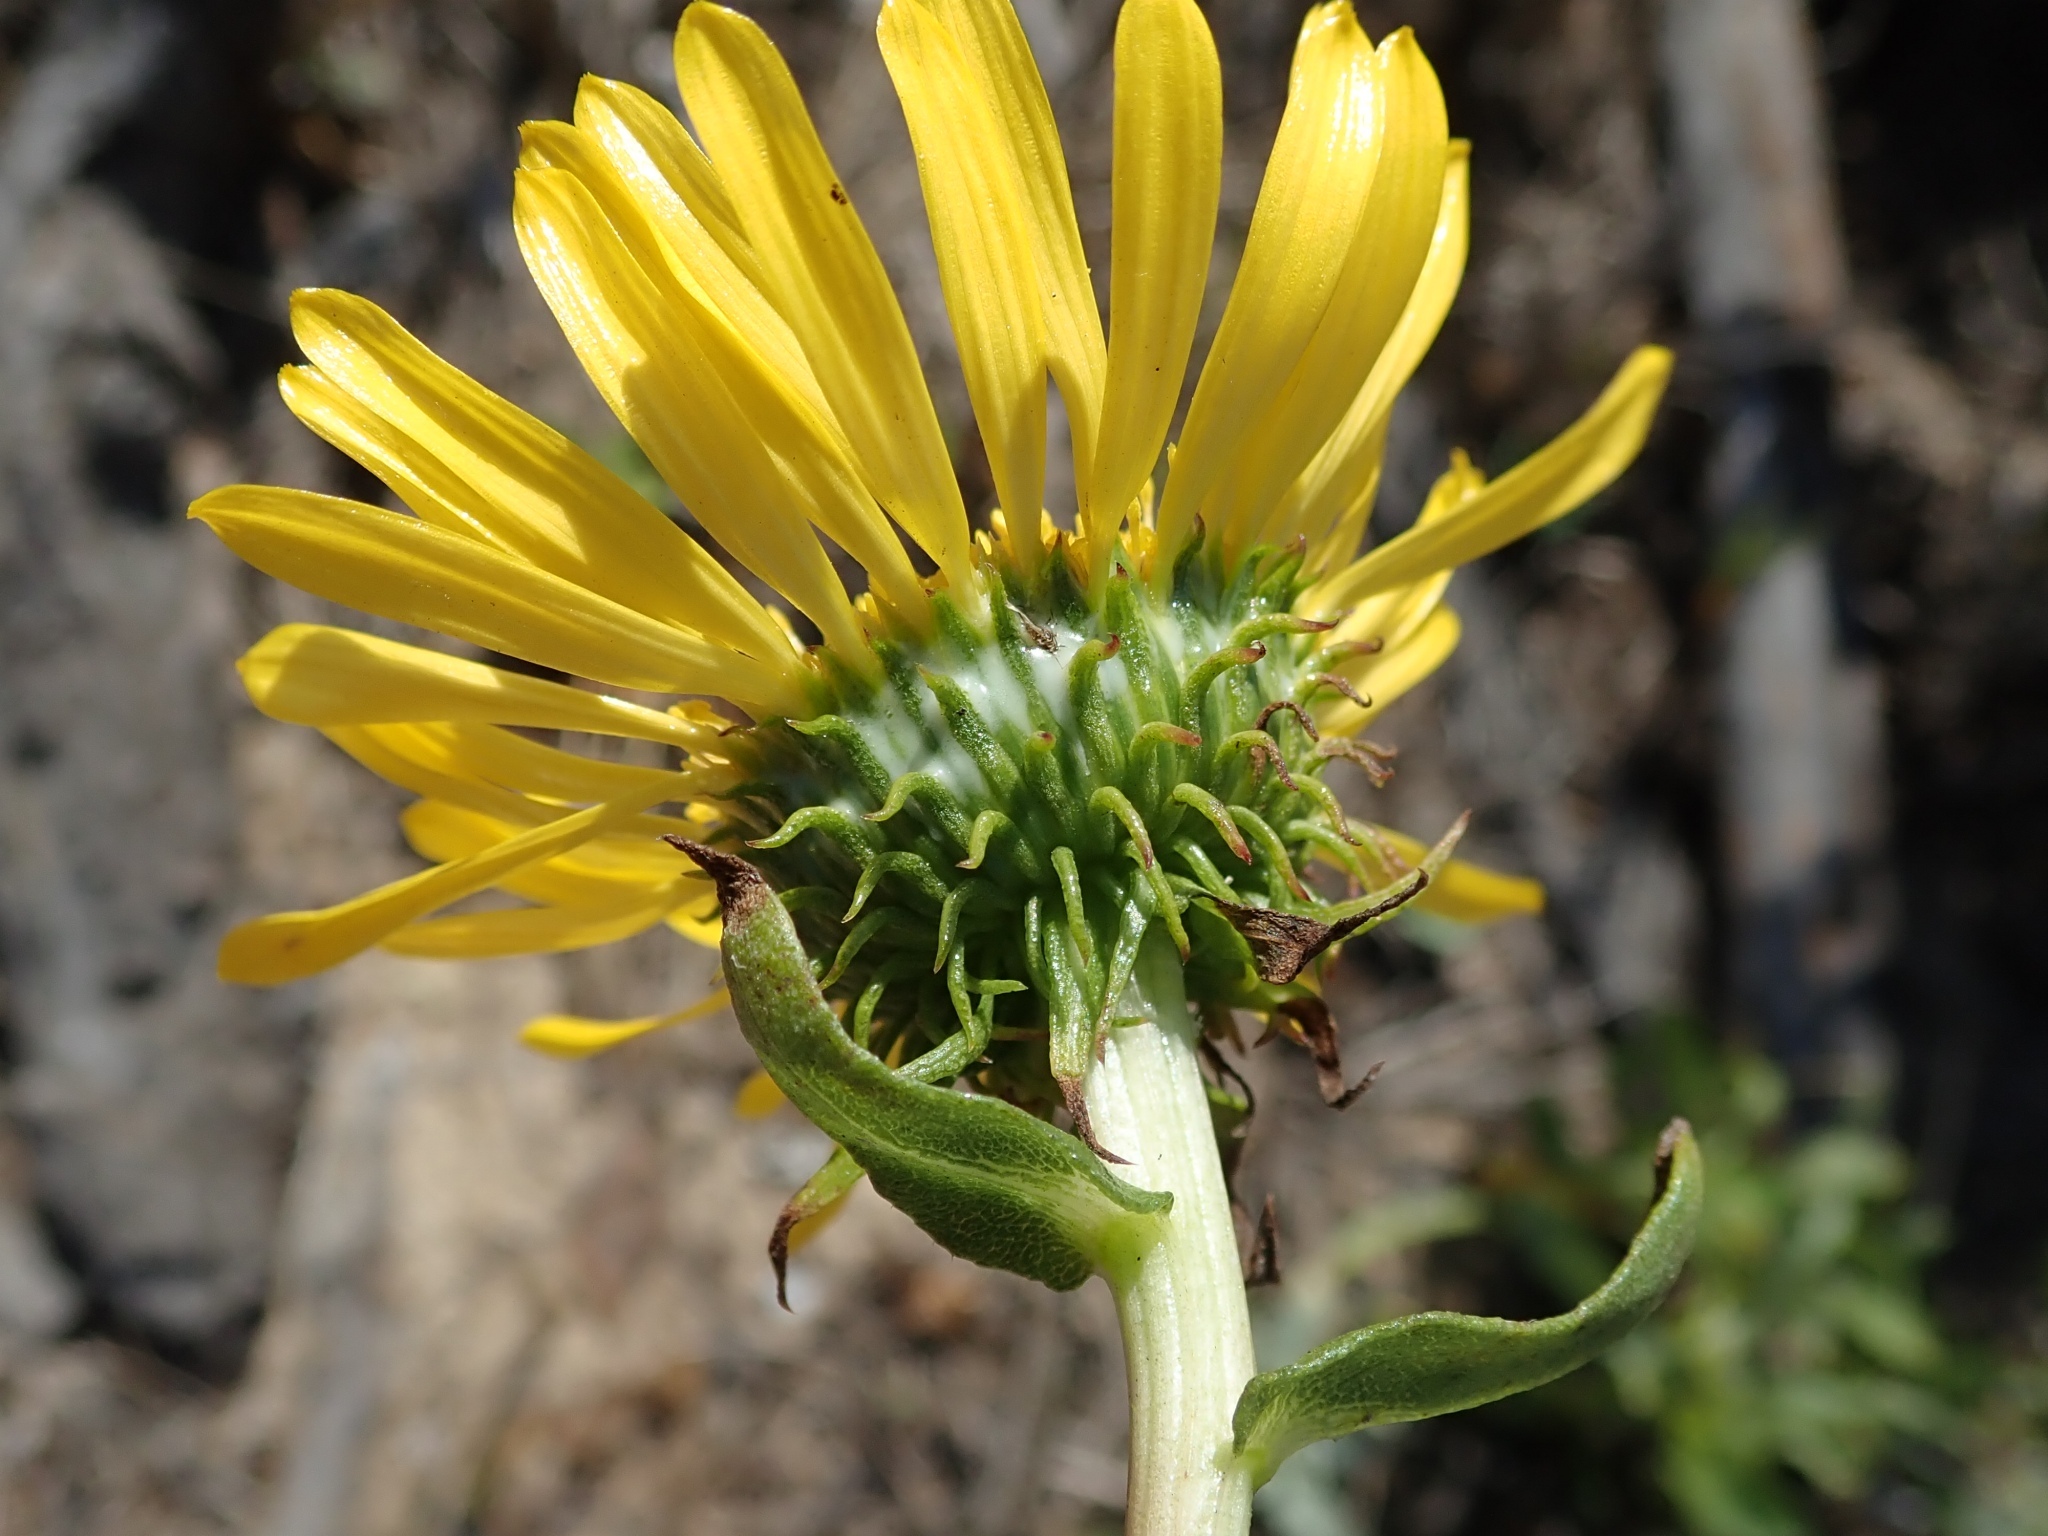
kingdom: Plantae
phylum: Tracheophyta
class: Magnoliopsida
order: Asterales
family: Asteraceae
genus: Grindelia
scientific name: Grindelia hirsutula
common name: Hairy gumweed
